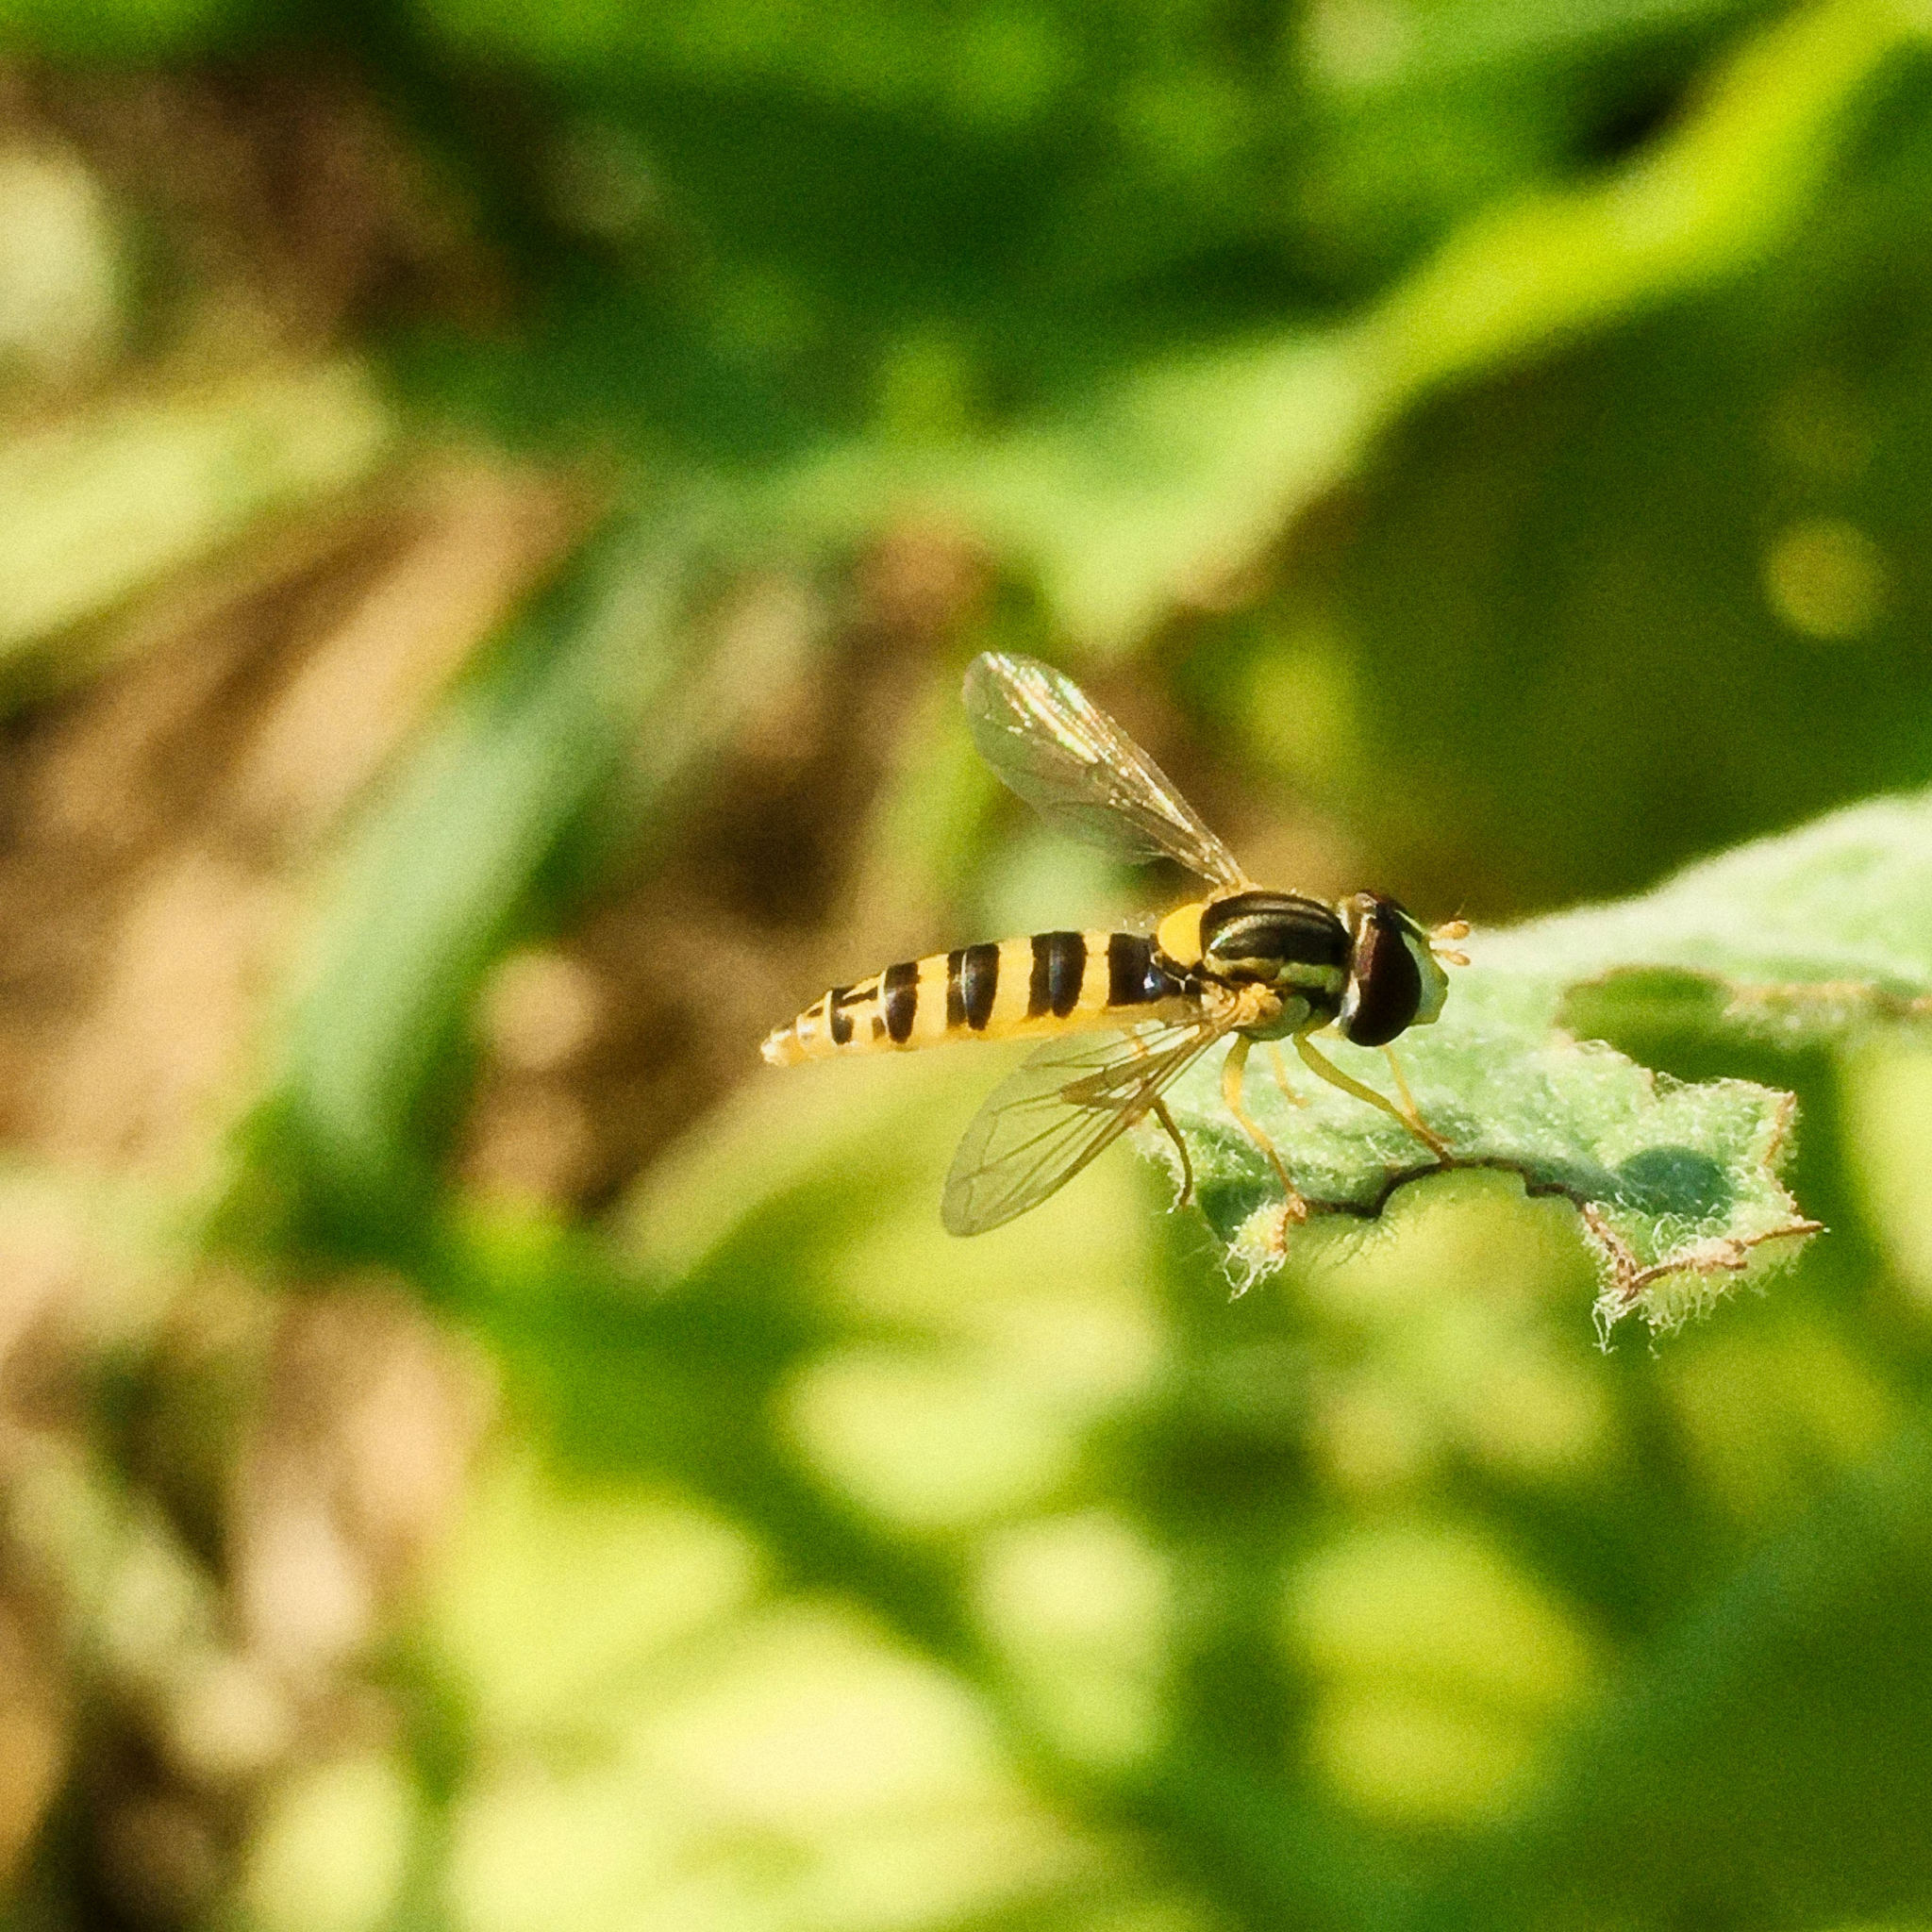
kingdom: Animalia
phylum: Arthropoda
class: Insecta
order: Diptera
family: Syrphidae
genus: Sphaerophoria
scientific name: Sphaerophoria
